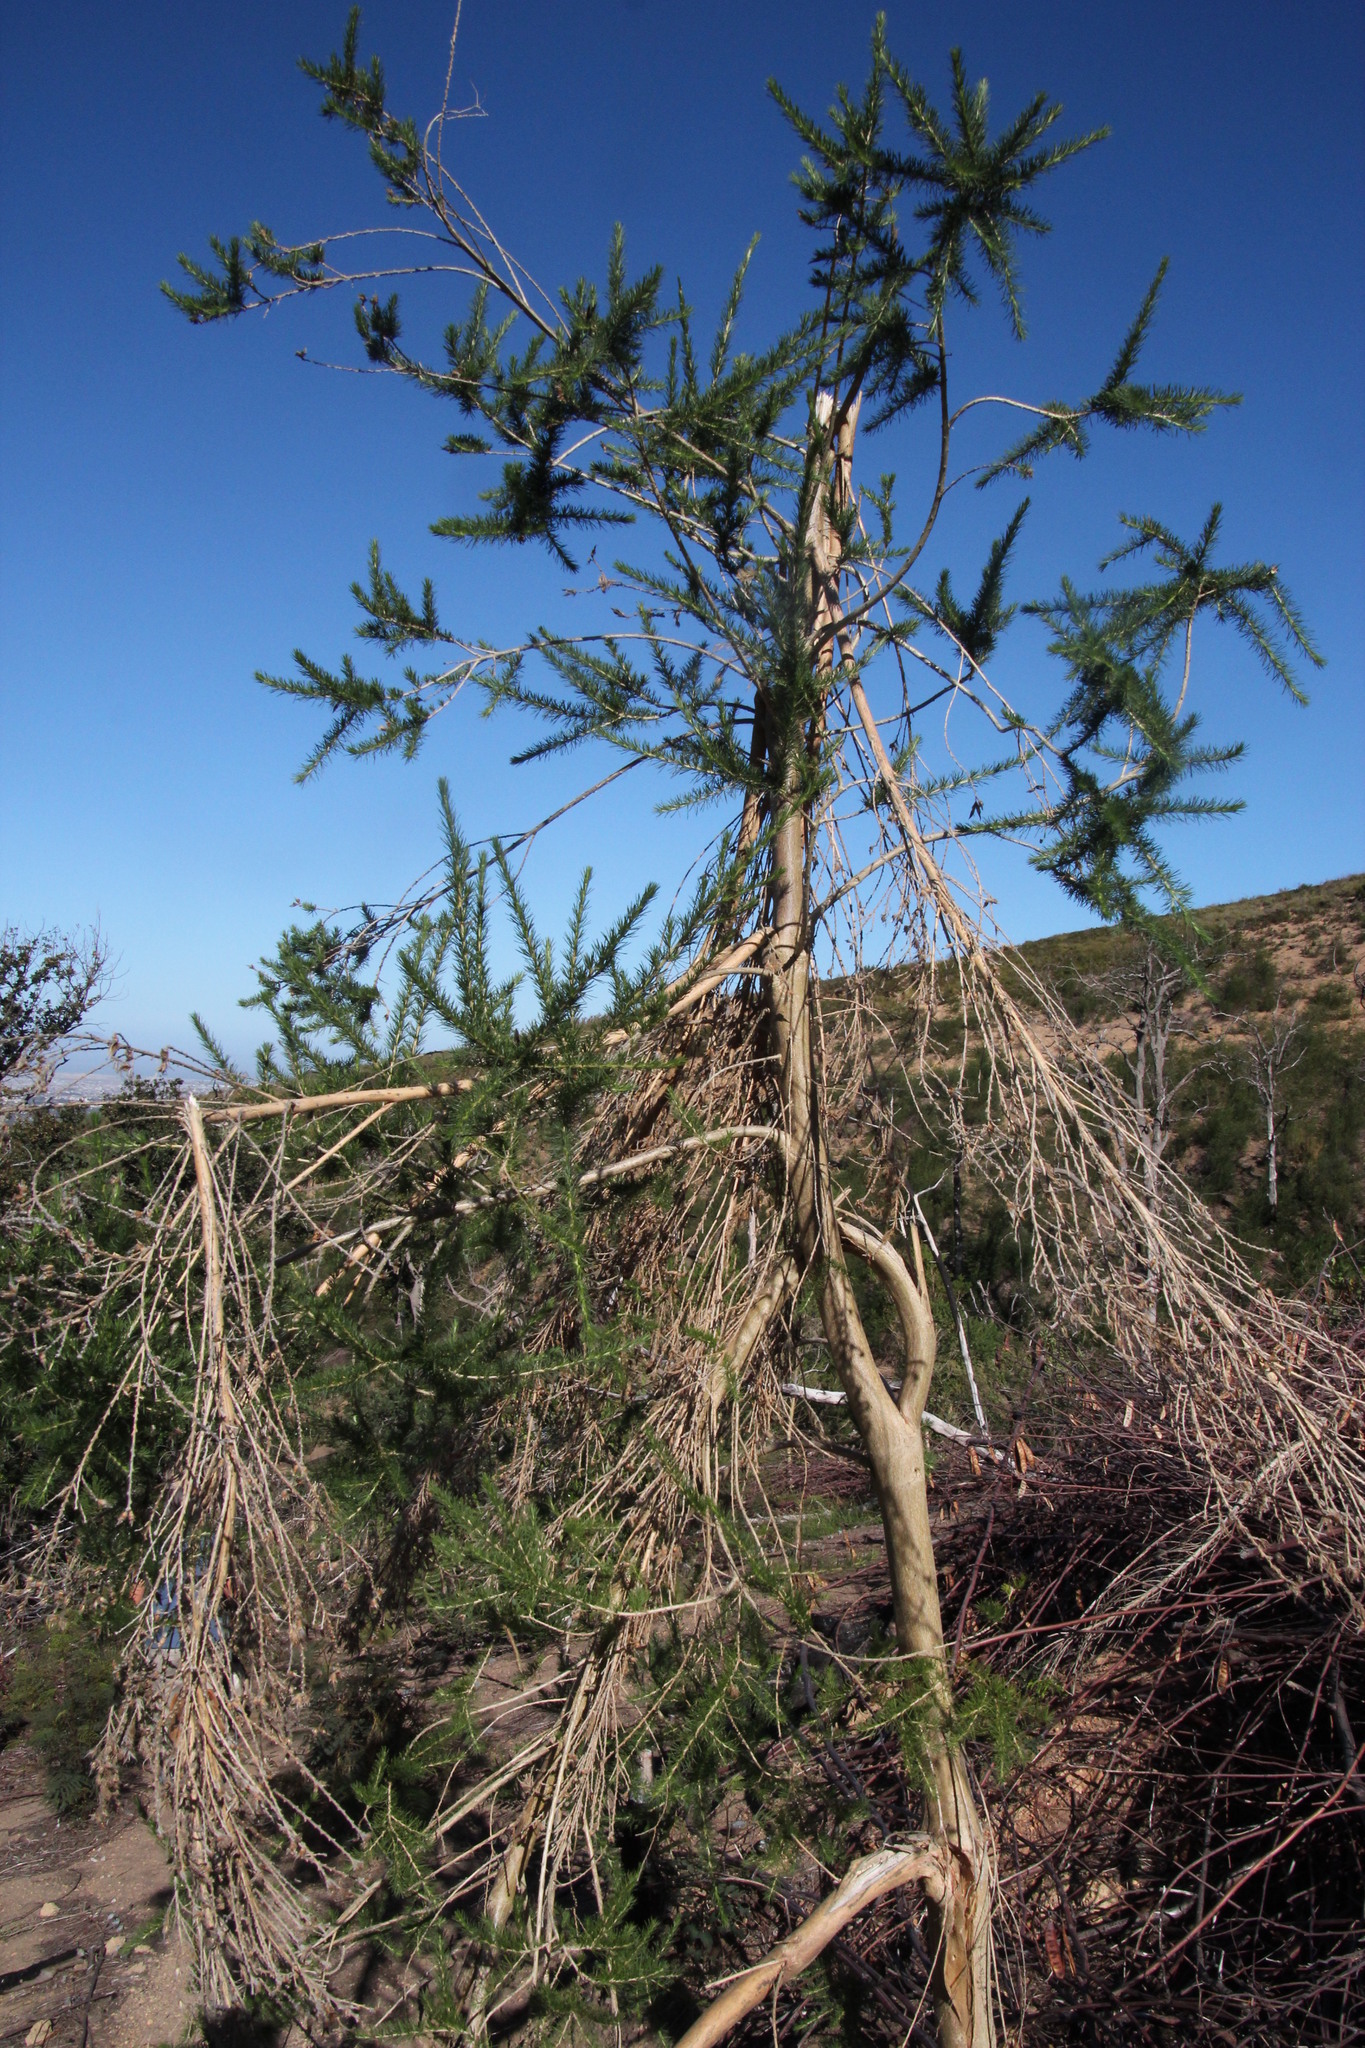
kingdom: Plantae
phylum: Tracheophyta
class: Magnoliopsida
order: Fabales
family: Fabaceae
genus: Aspalathus
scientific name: Aspalathus macrantha
